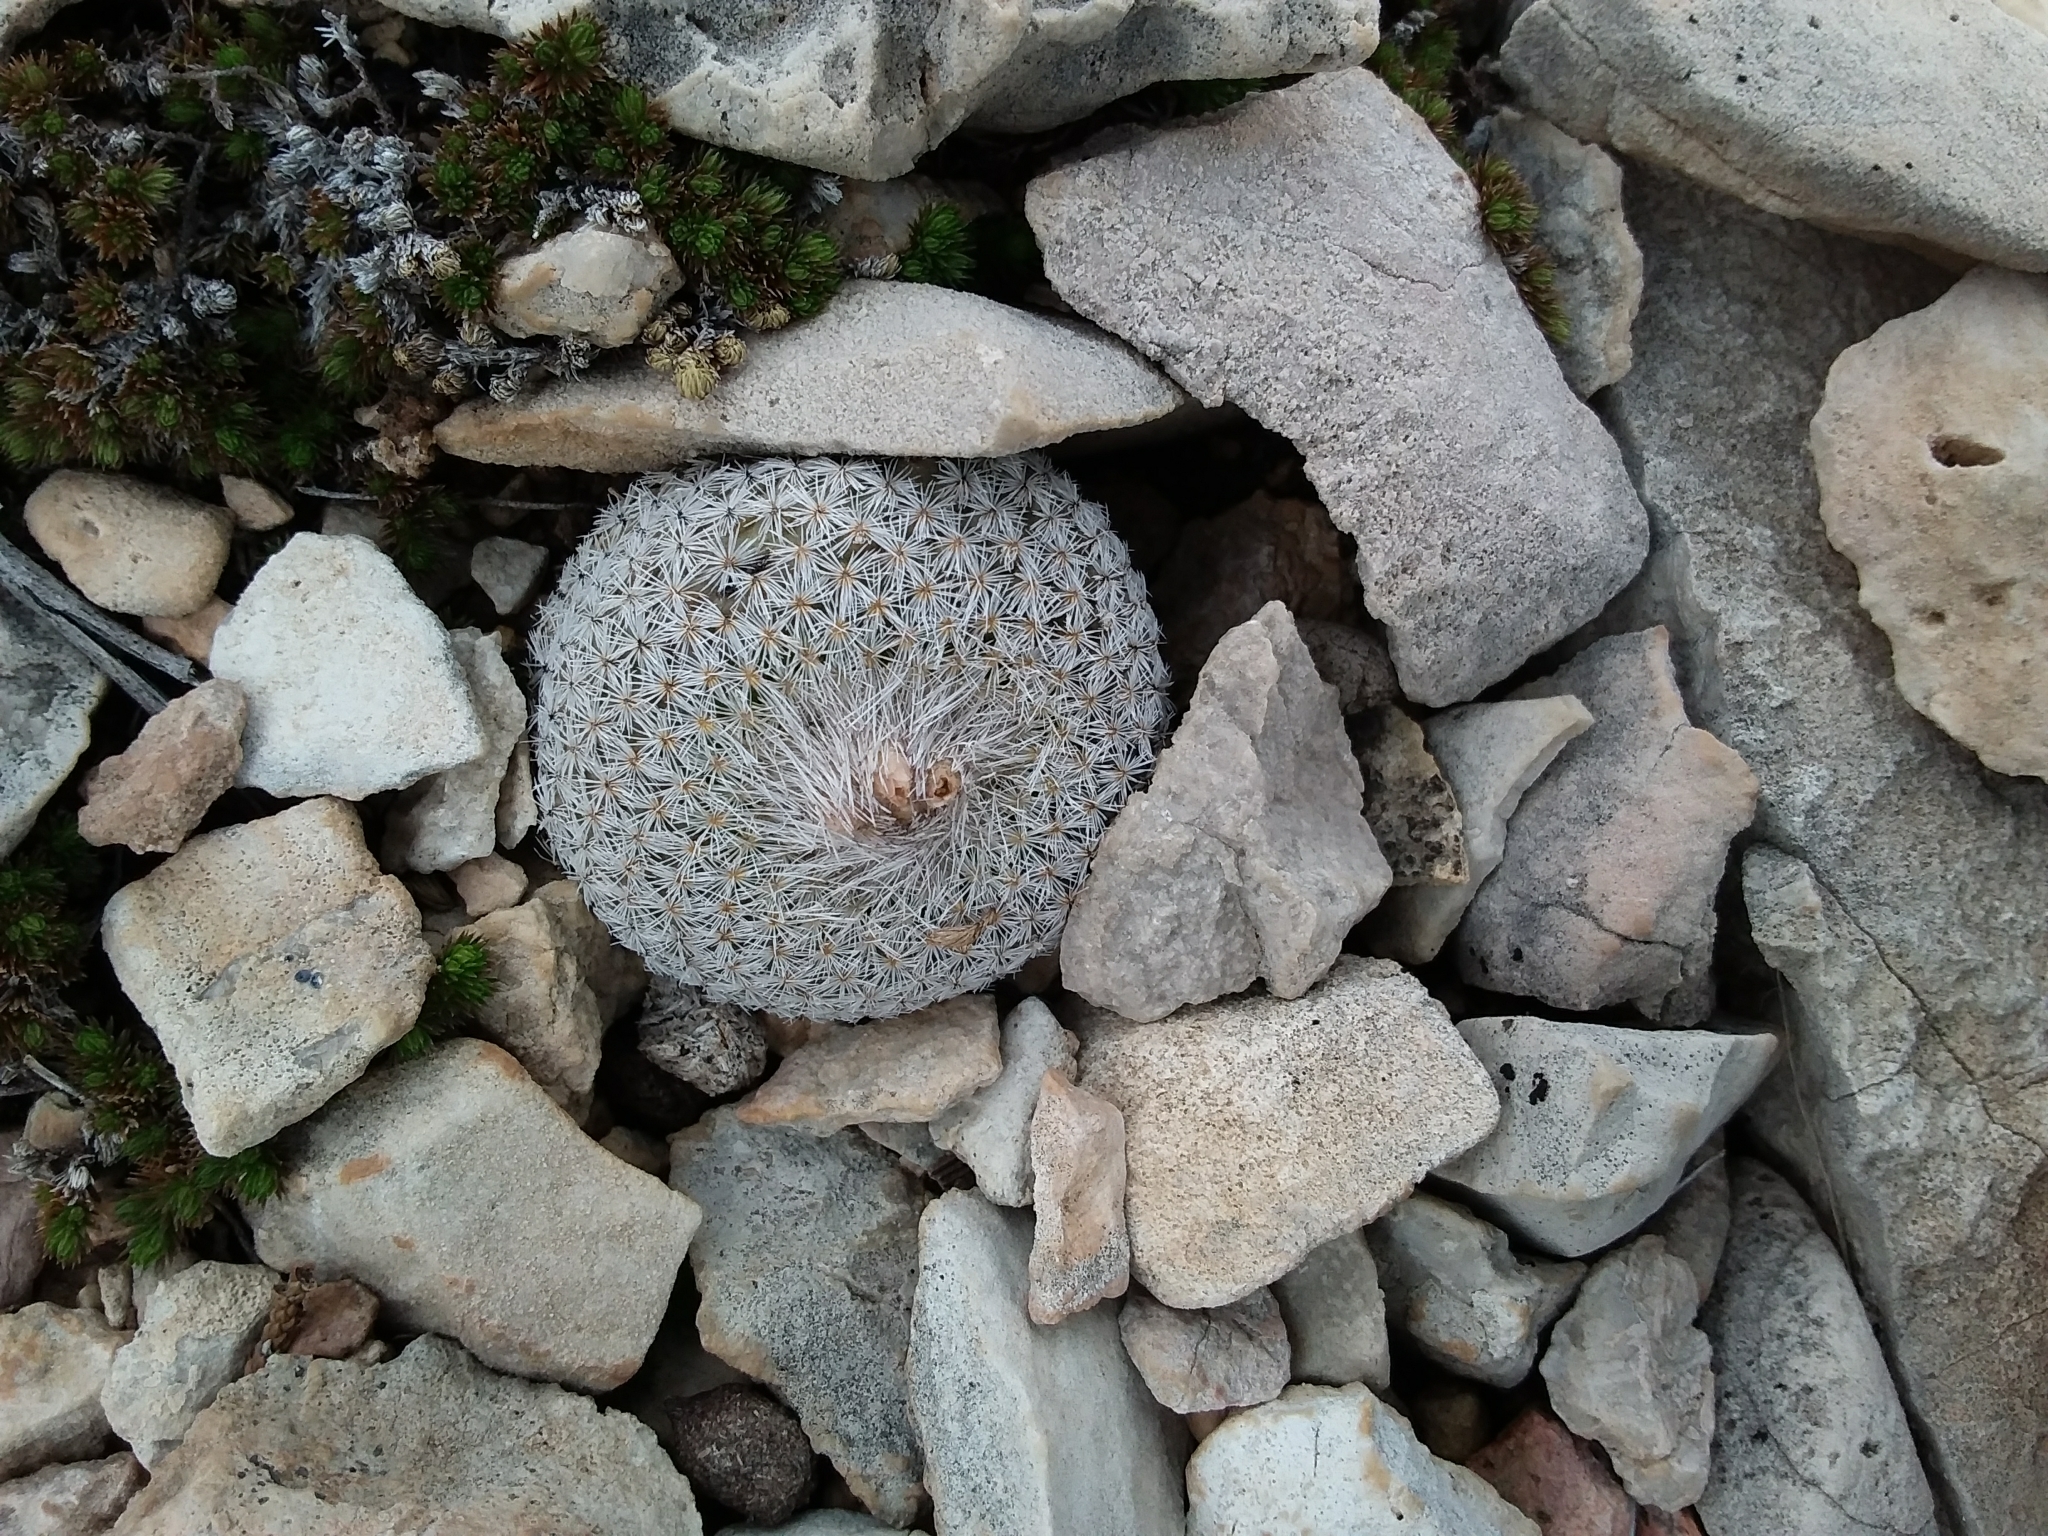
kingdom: Plantae
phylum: Tracheophyta
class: Magnoliopsida
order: Caryophyllales
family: Cactaceae
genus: Epithelantha
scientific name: Epithelantha micromeris
